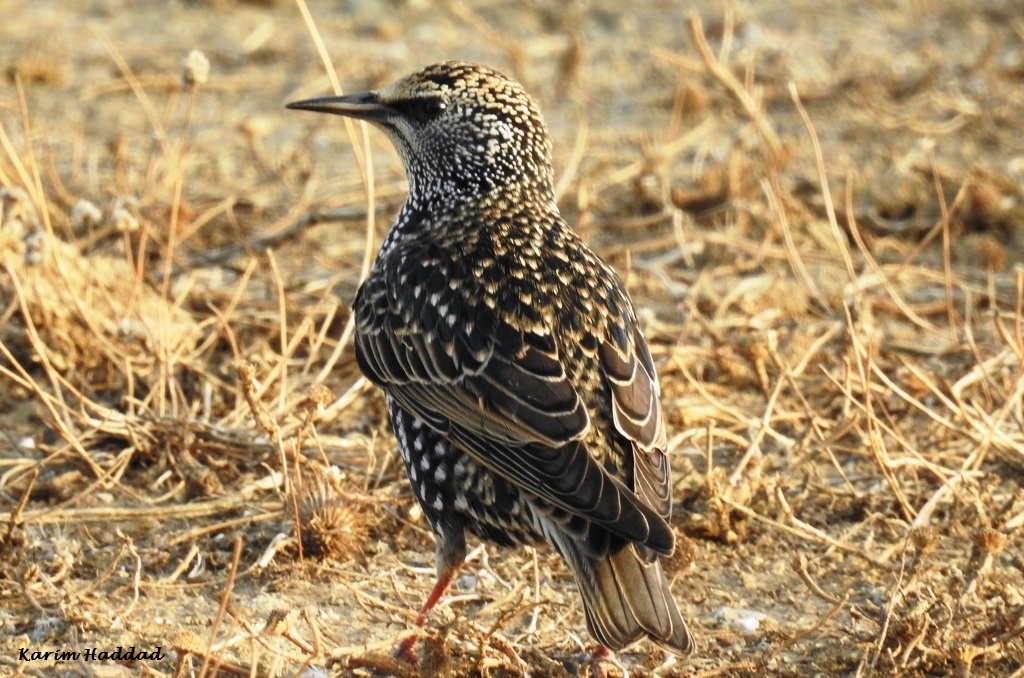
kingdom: Animalia
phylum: Chordata
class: Aves
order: Passeriformes
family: Sturnidae
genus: Sturnus
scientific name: Sturnus vulgaris
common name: Common starling
